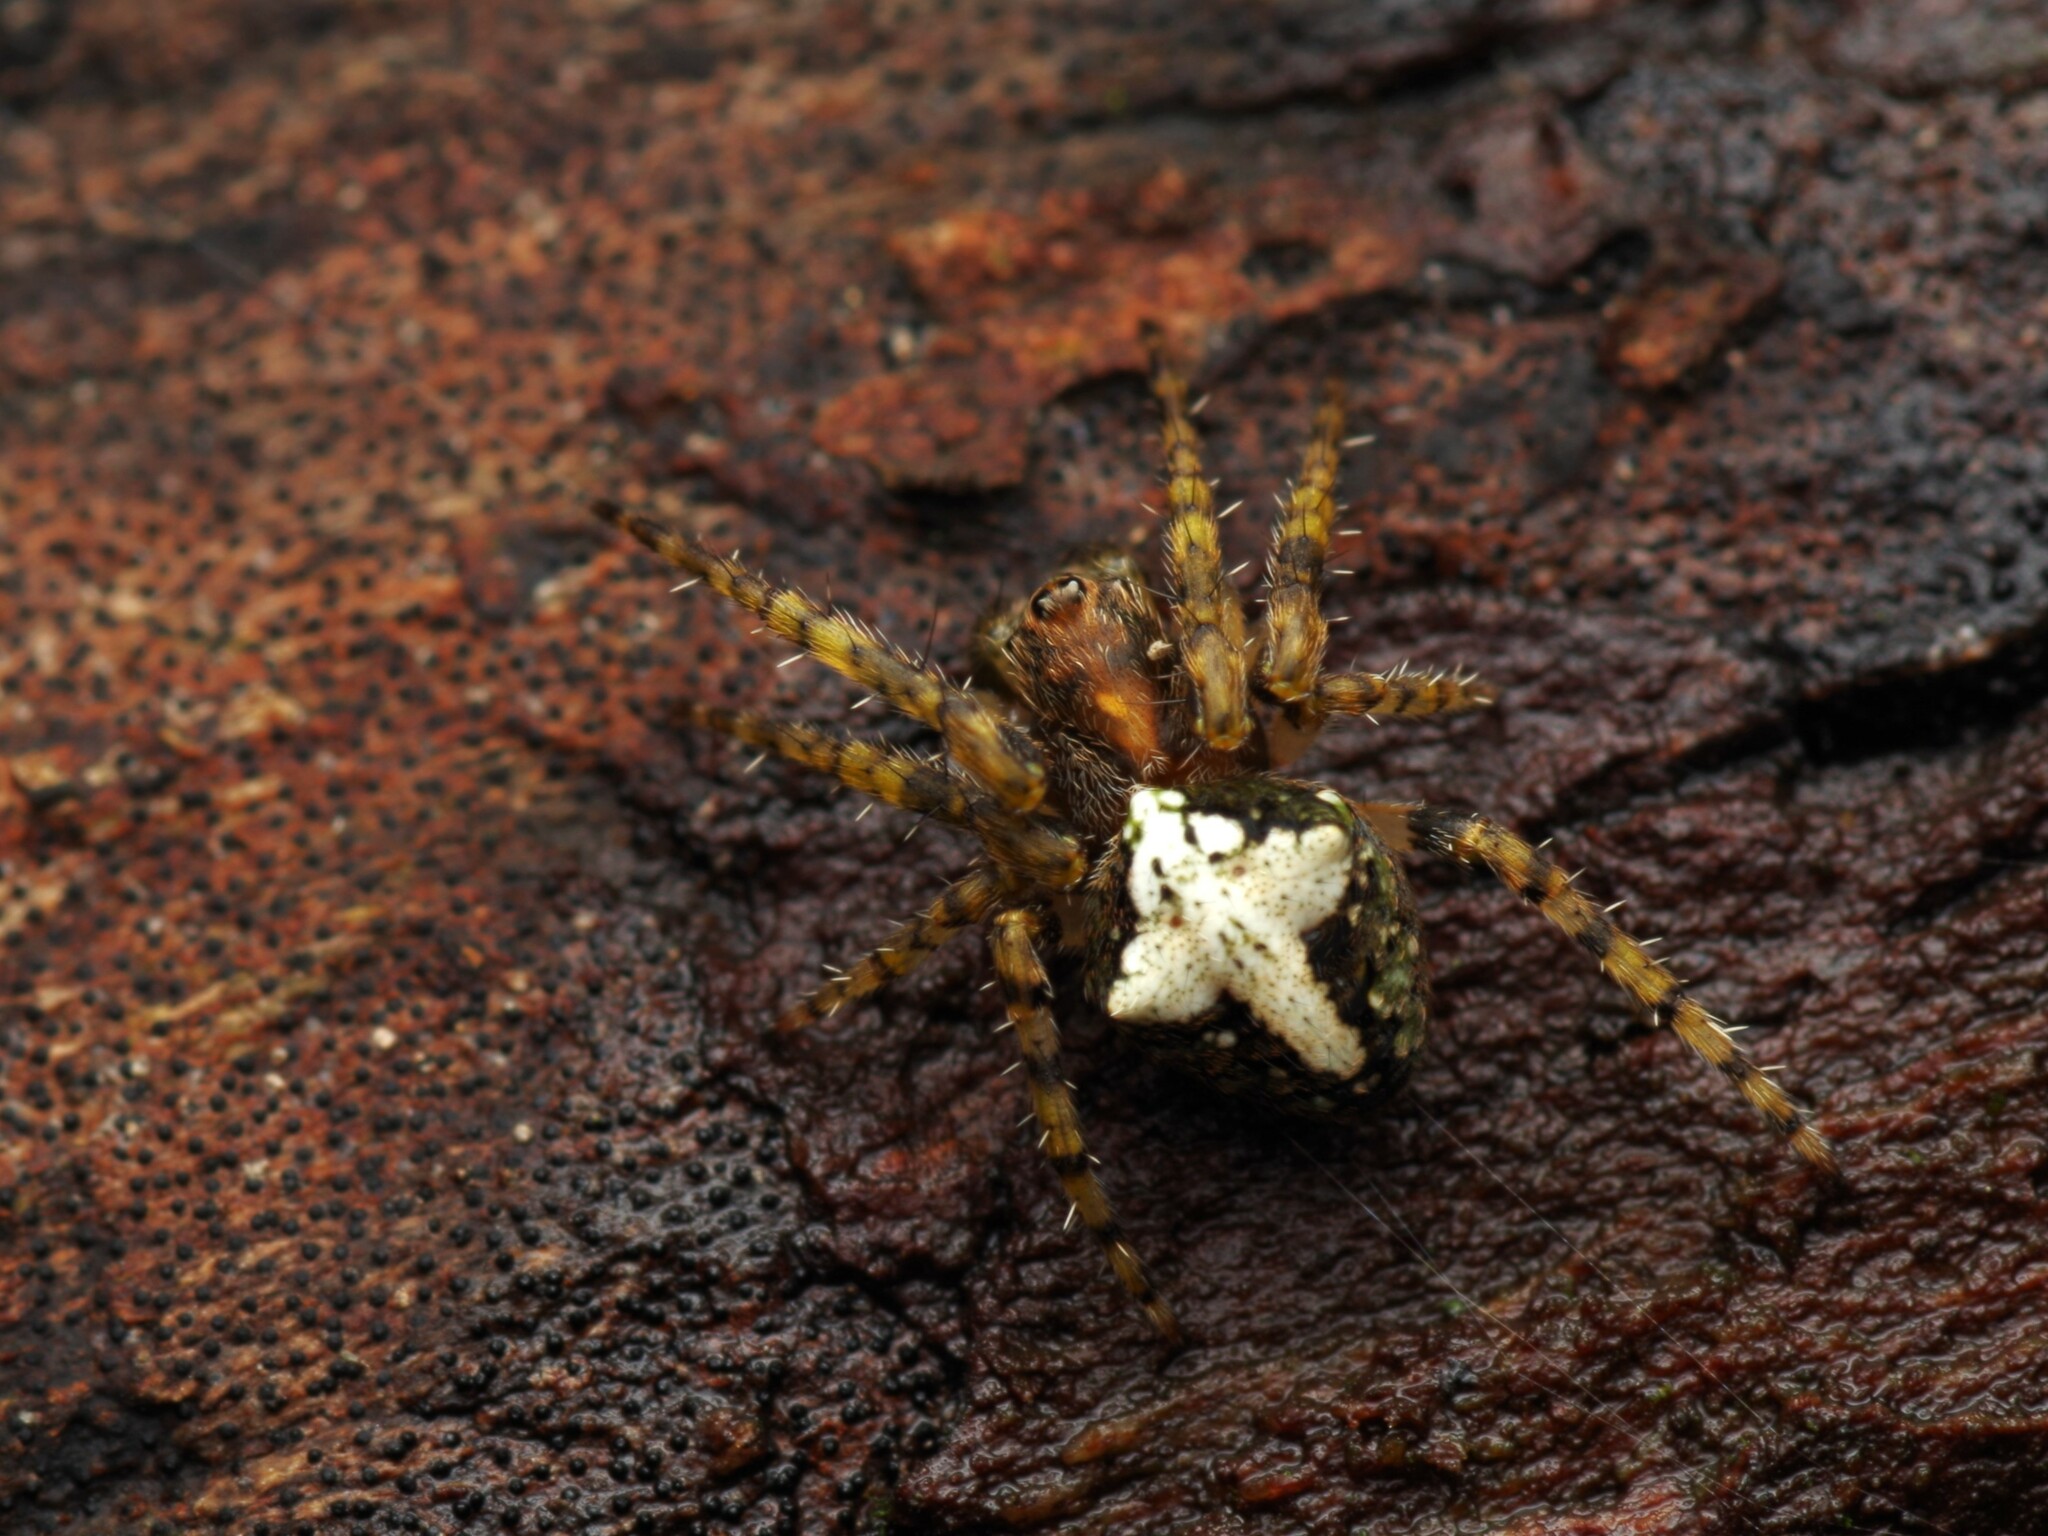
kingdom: Animalia
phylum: Arthropoda
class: Arachnida
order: Araneae
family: Araneidae
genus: Gibbaranea
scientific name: Gibbaranea gibbosa
